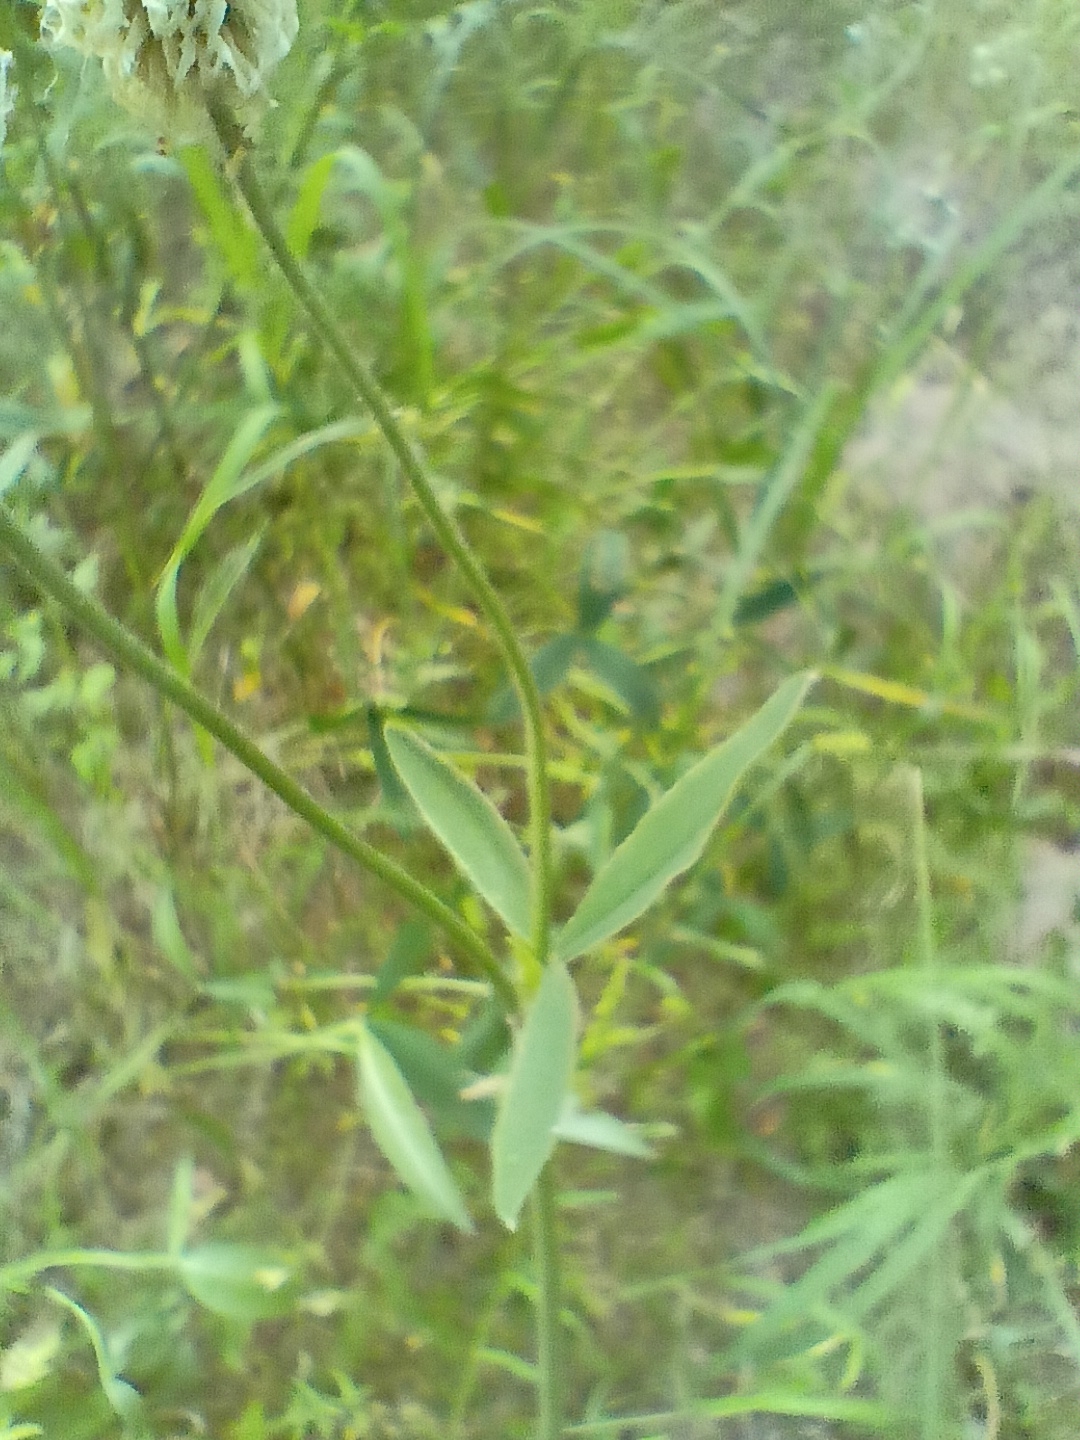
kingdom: Plantae
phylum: Tracheophyta
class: Magnoliopsida
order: Fabales
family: Fabaceae
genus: Trifolium
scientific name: Trifolium montanum
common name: Mountain clover
